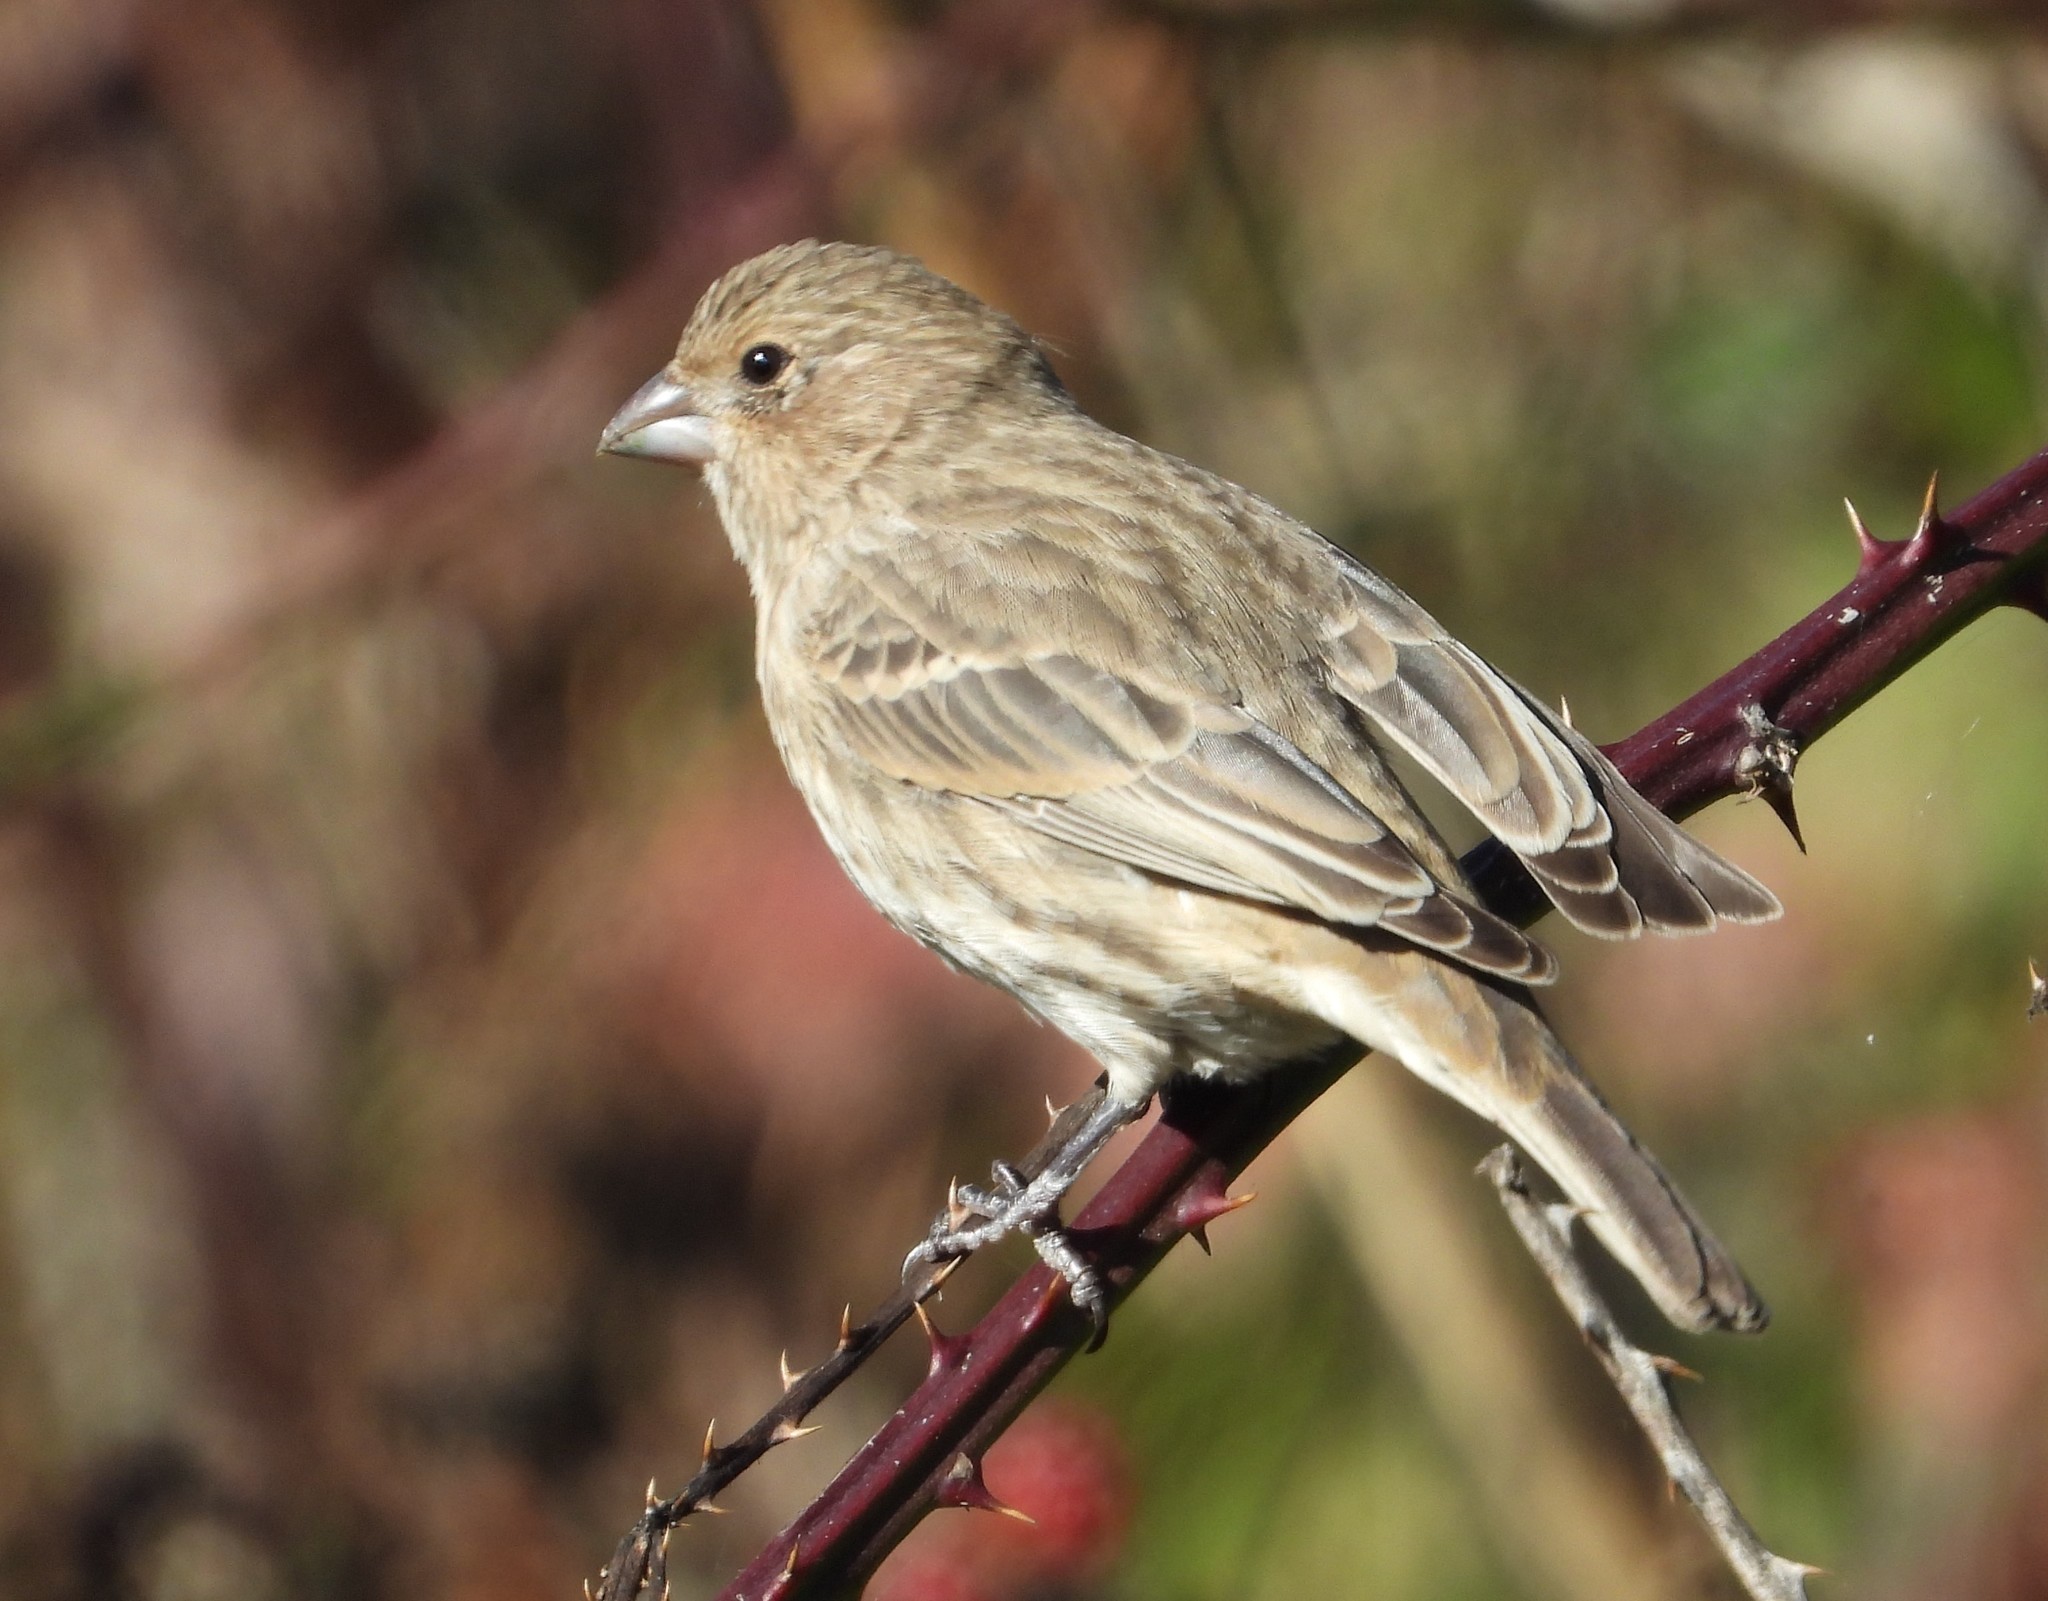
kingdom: Animalia
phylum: Chordata
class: Aves
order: Passeriformes
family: Fringillidae
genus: Haemorhous
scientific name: Haemorhous mexicanus
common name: House finch
